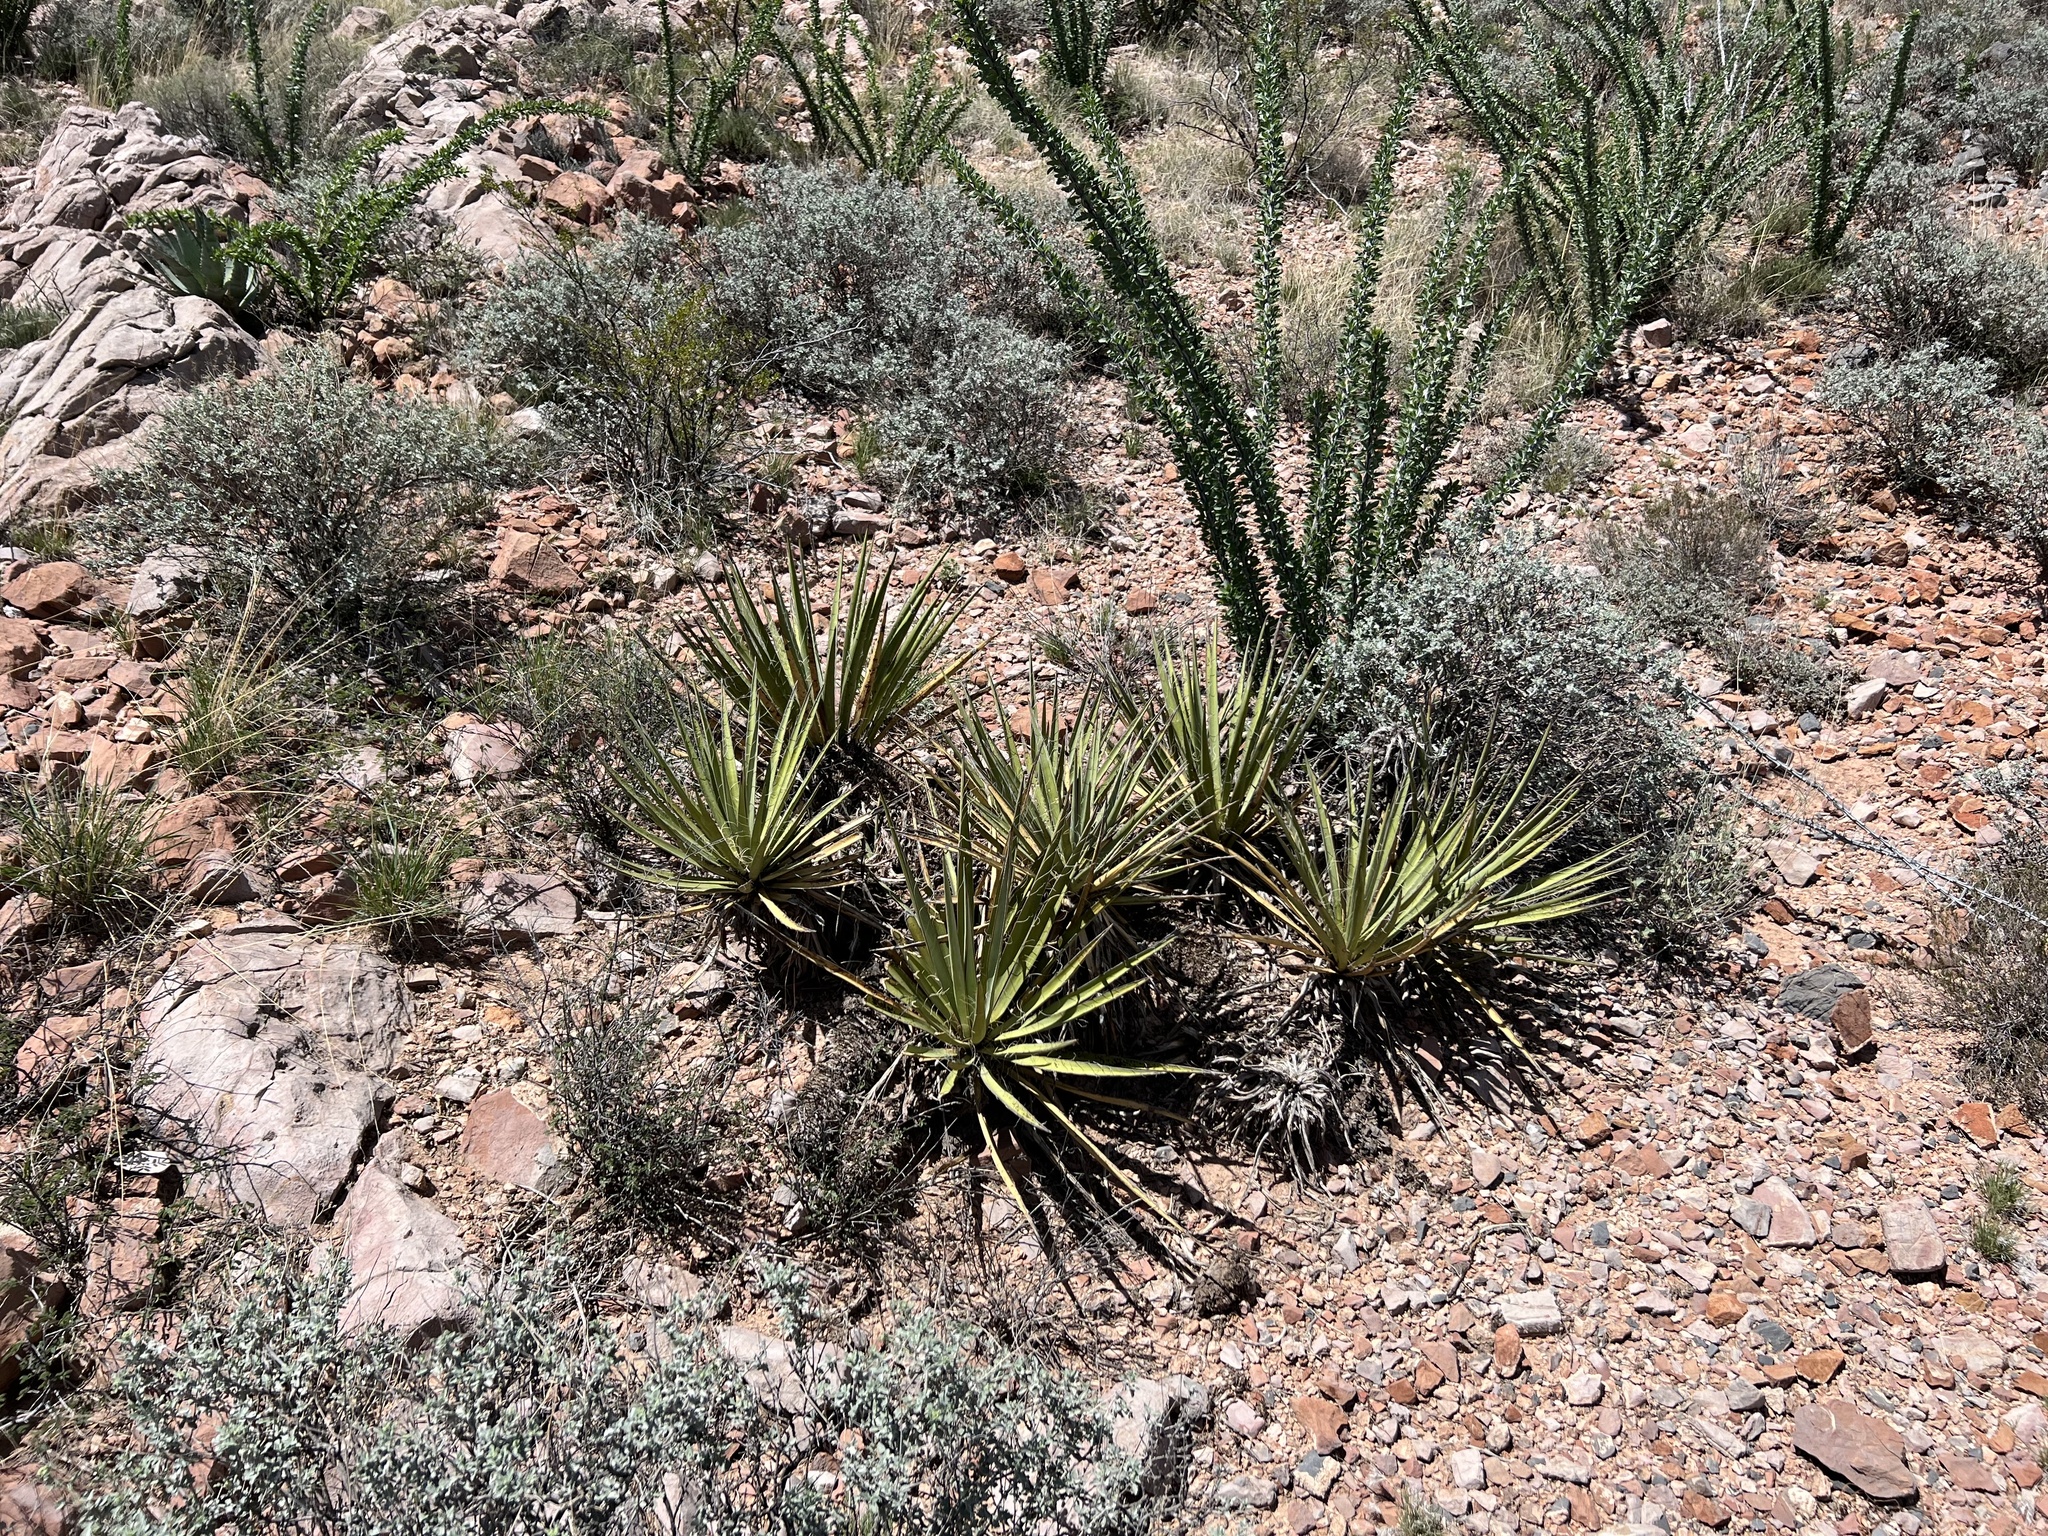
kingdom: Plantae
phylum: Tracheophyta
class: Liliopsida
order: Asparagales
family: Asparagaceae
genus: Yucca
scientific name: Yucca baccata
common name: Banana yucca
